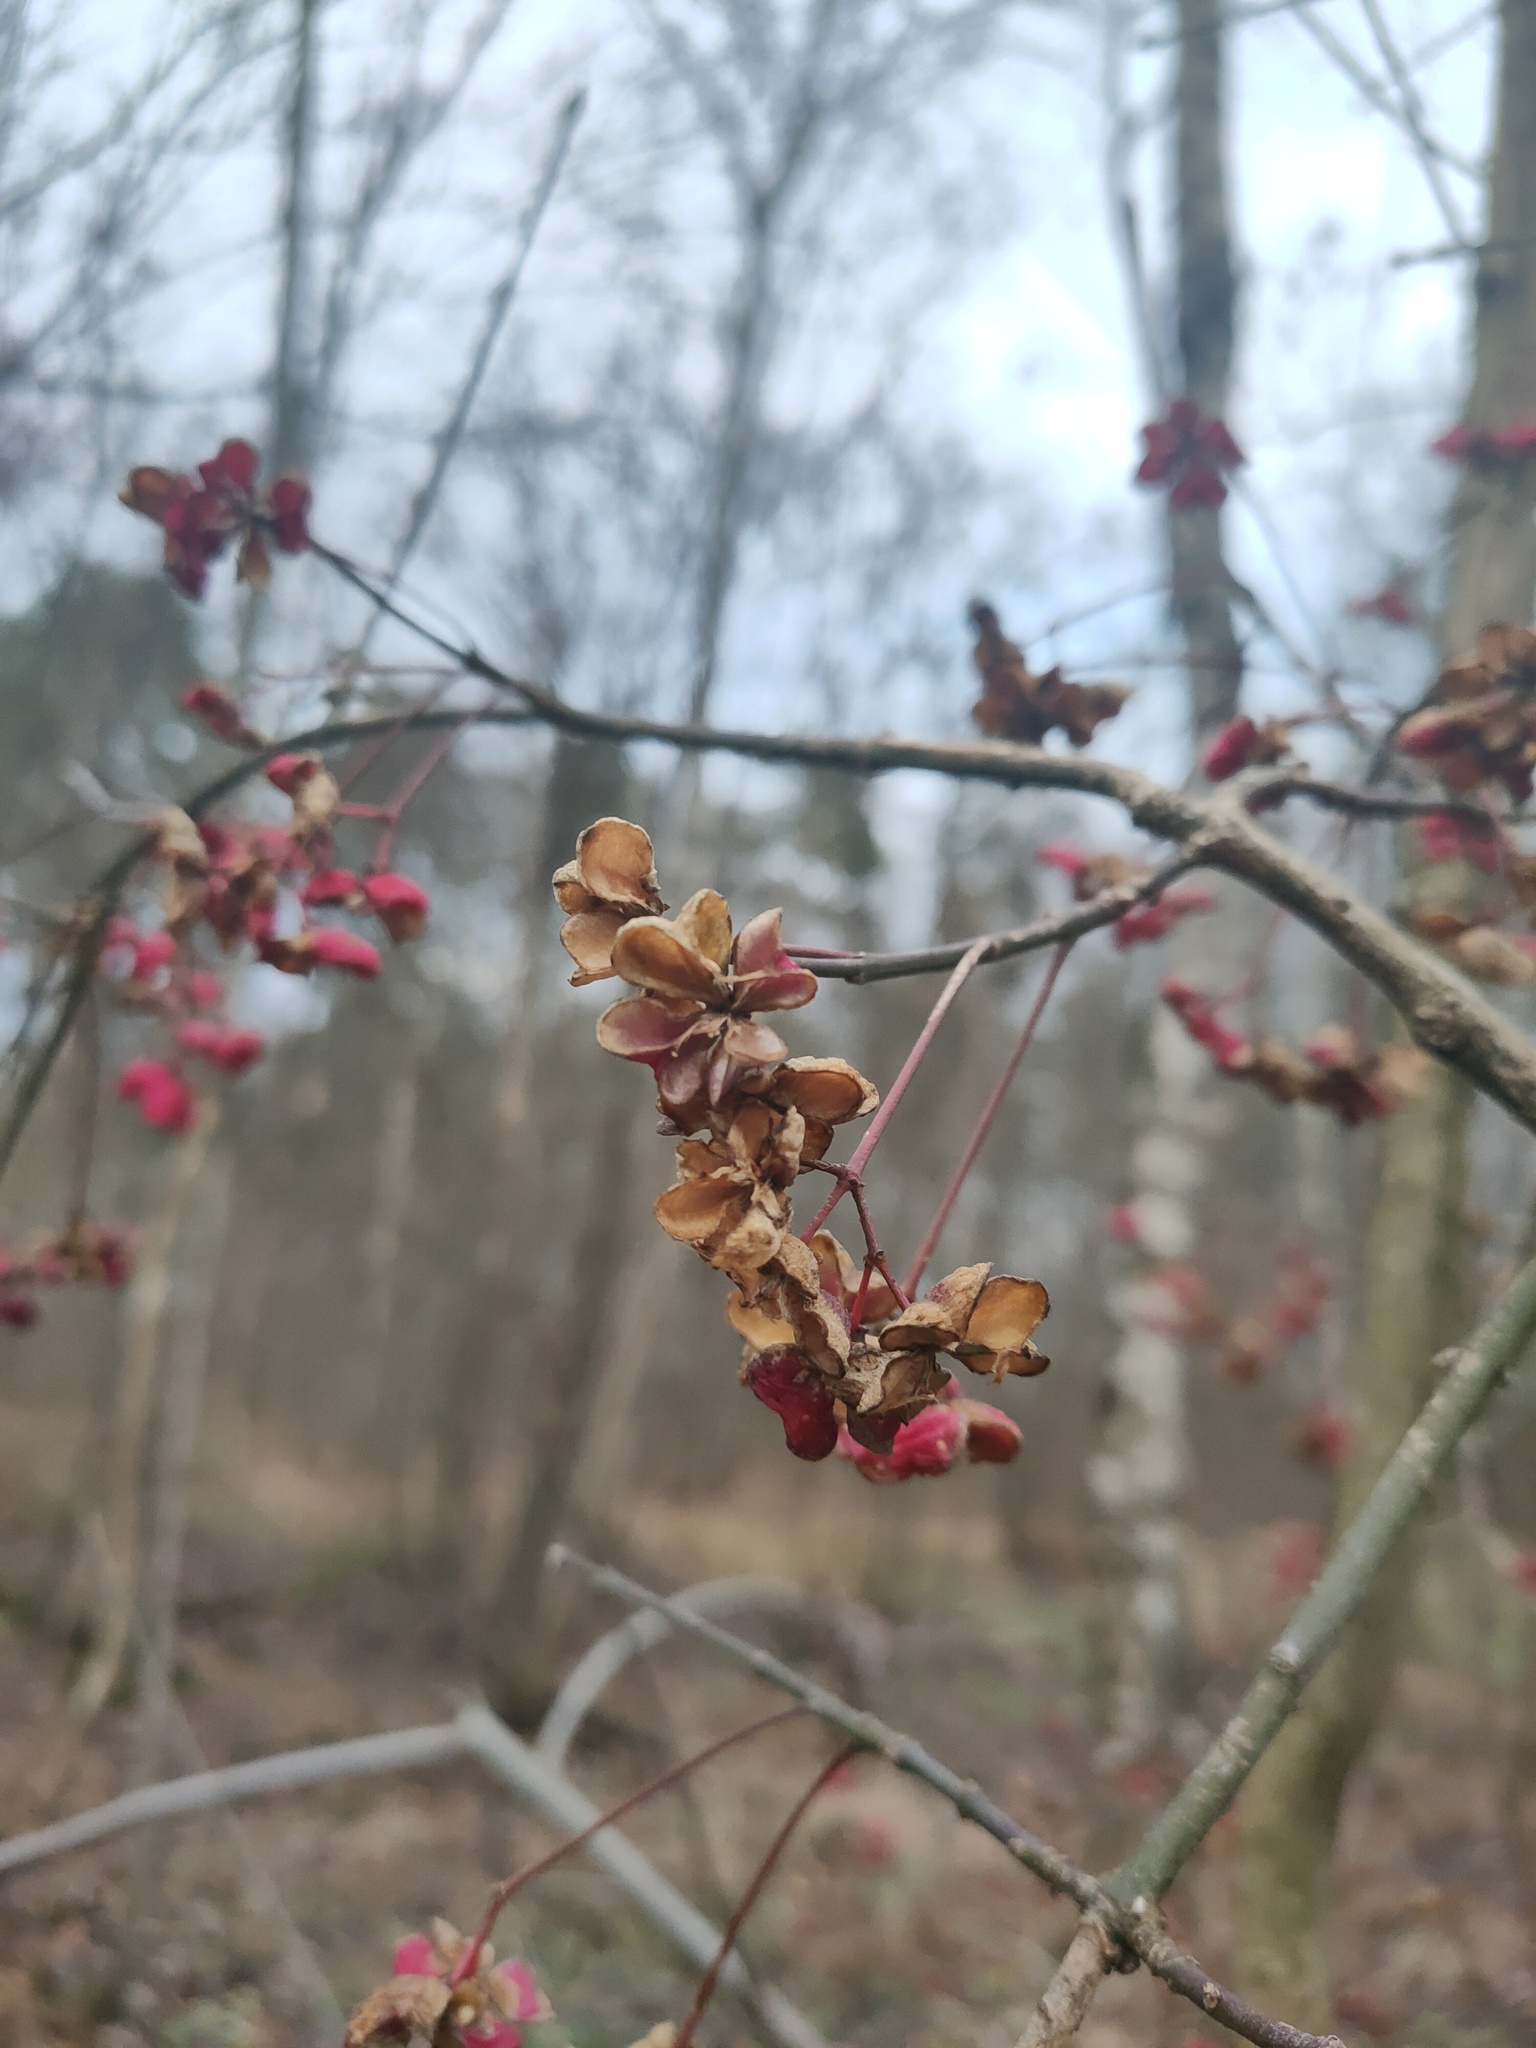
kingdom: Plantae
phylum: Tracheophyta
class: Magnoliopsida
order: Celastrales
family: Celastraceae
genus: Euonymus
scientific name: Euonymus europaeus
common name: Spindle
